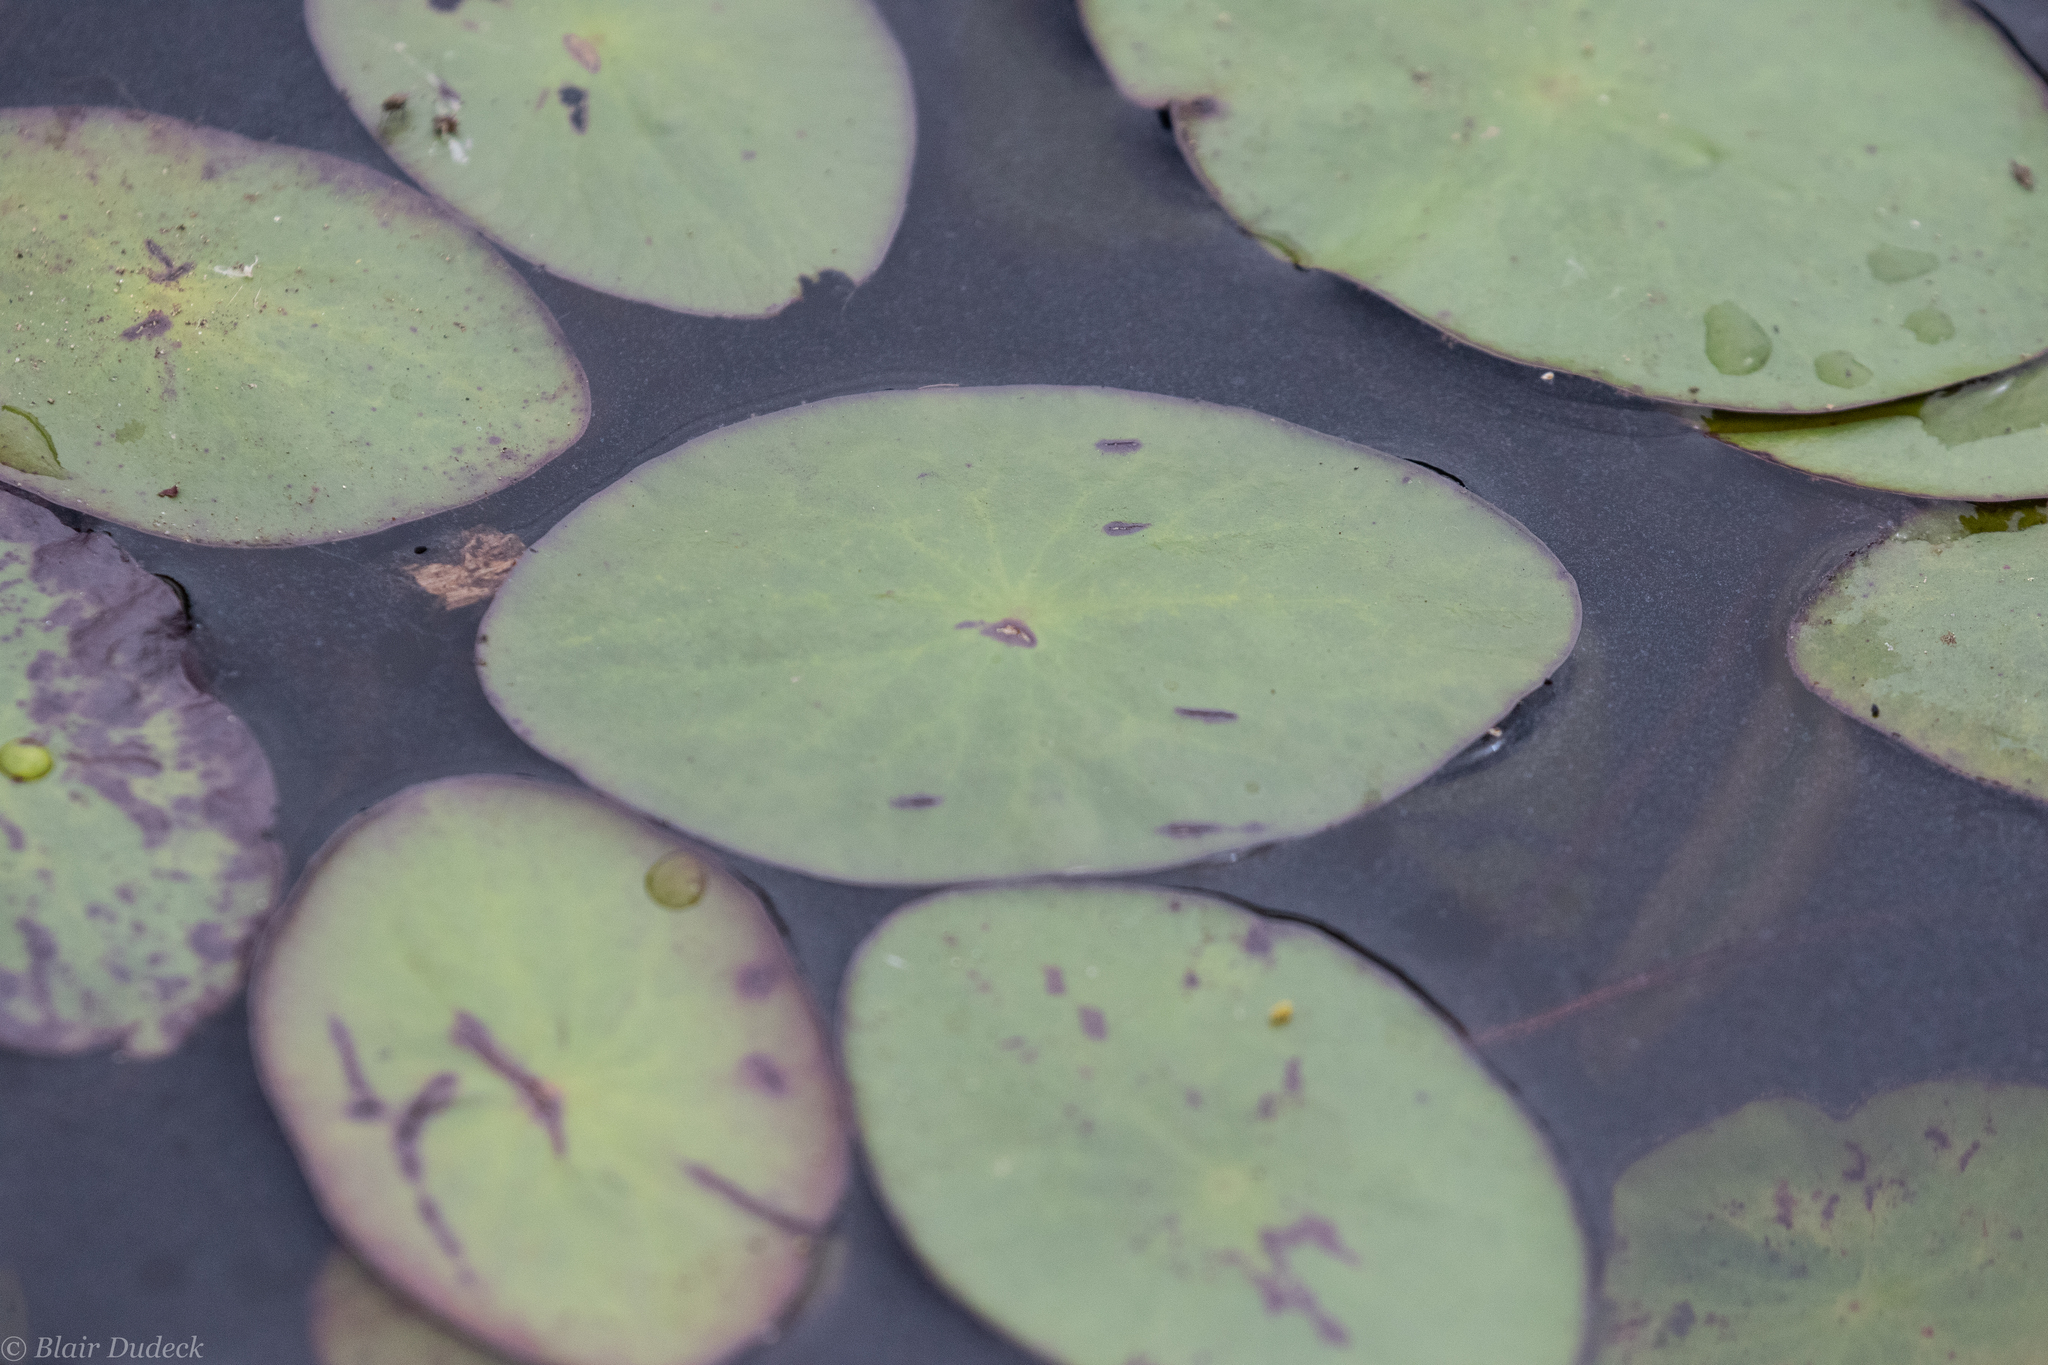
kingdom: Plantae
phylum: Tracheophyta
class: Magnoliopsida
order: Nymphaeales
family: Cabombaceae
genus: Brasenia
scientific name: Brasenia schreberi
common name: Water-shield
